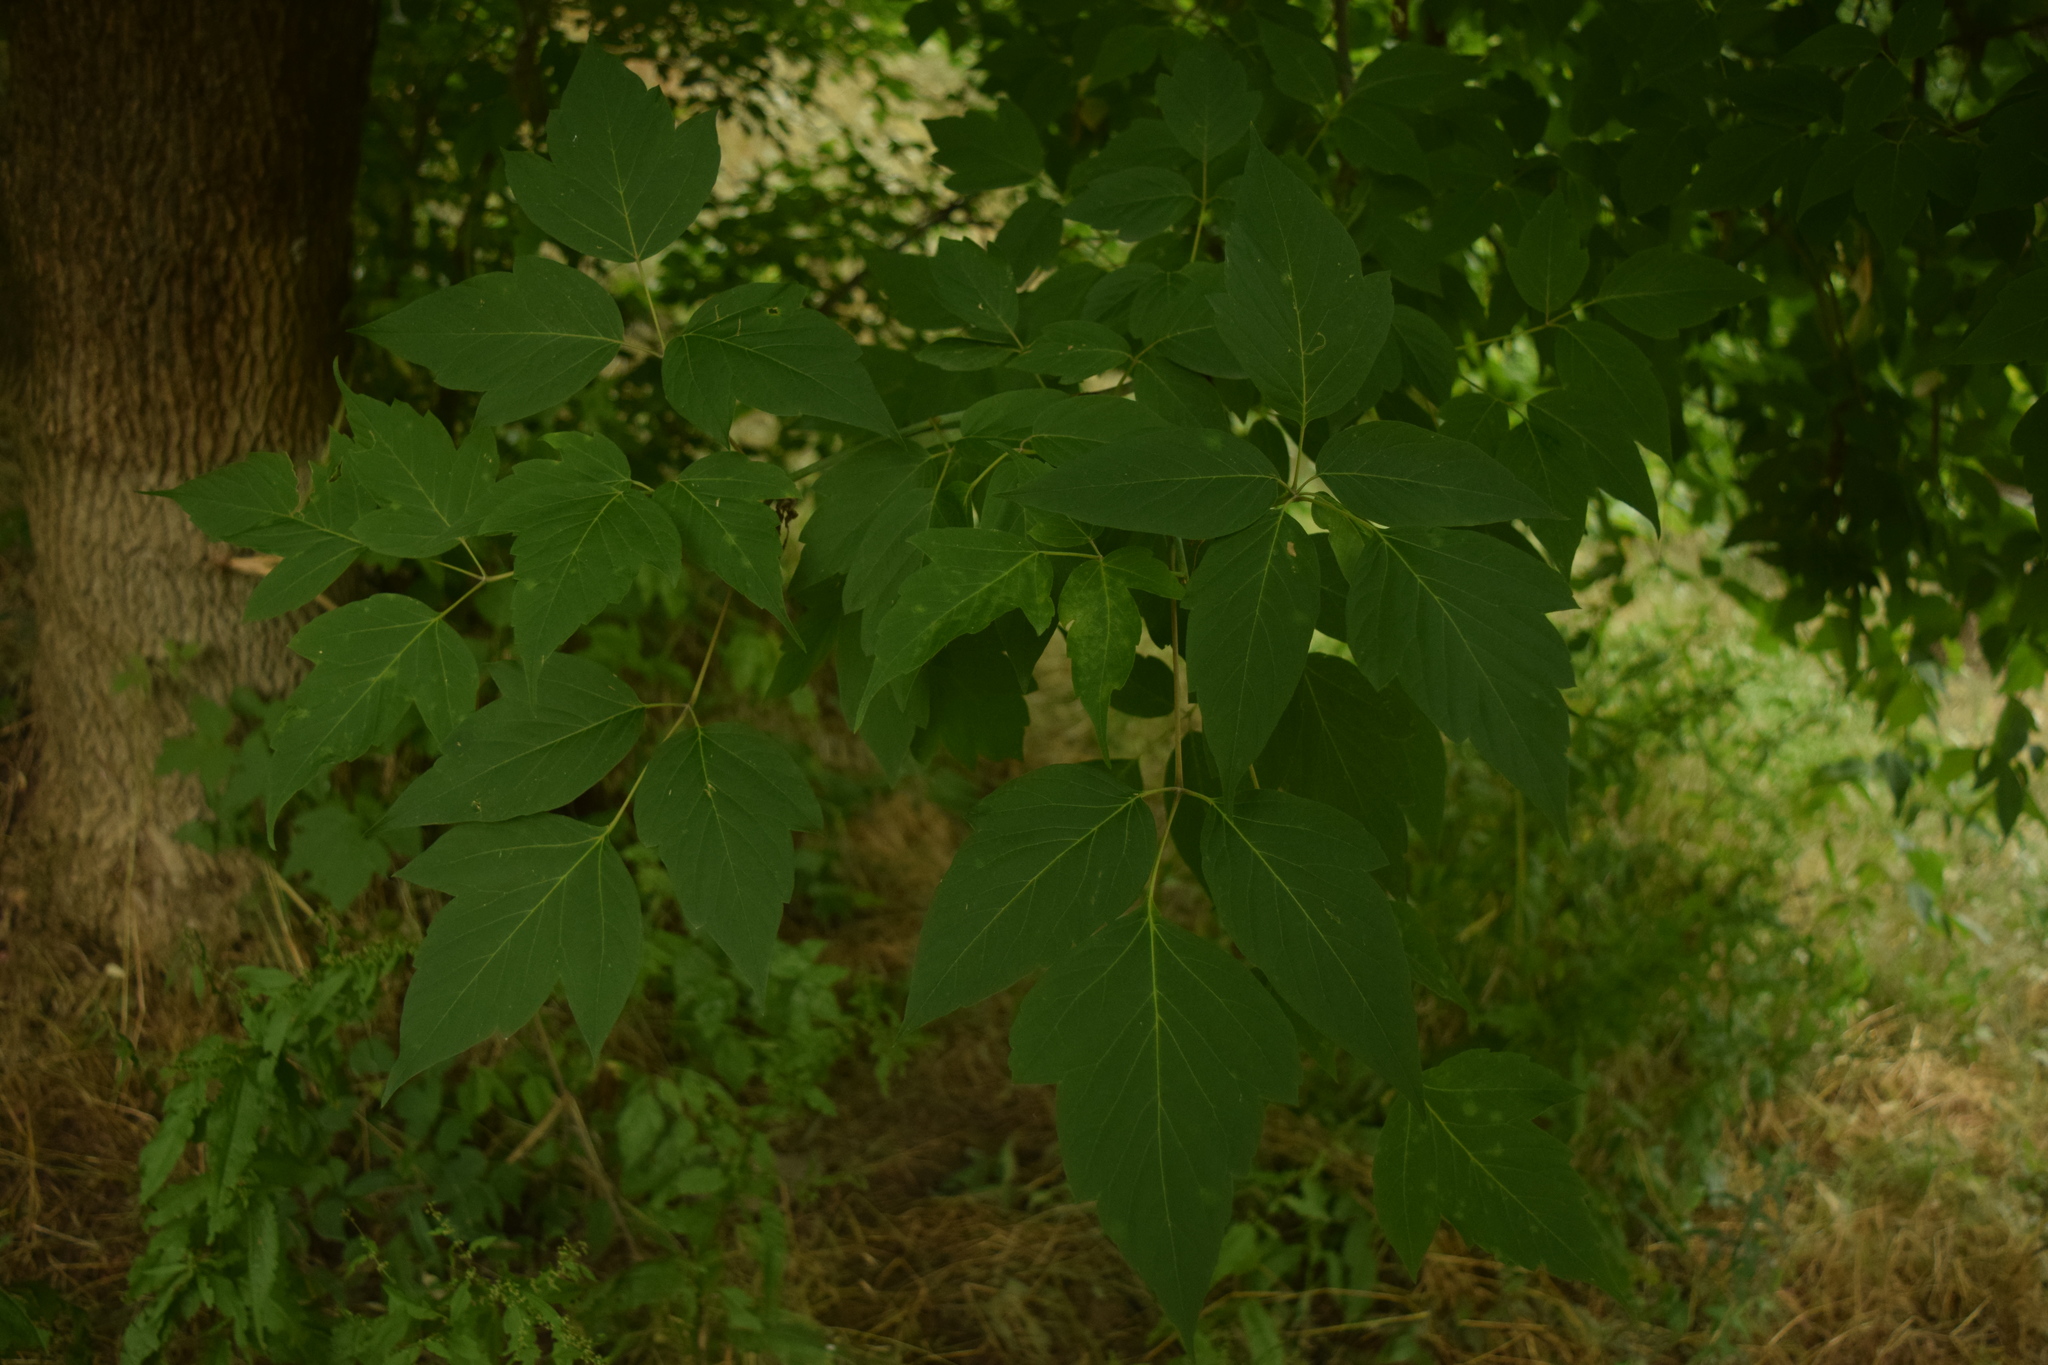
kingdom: Plantae
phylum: Tracheophyta
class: Magnoliopsida
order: Sapindales
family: Sapindaceae
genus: Acer
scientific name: Acer negundo
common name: Ashleaf maple
